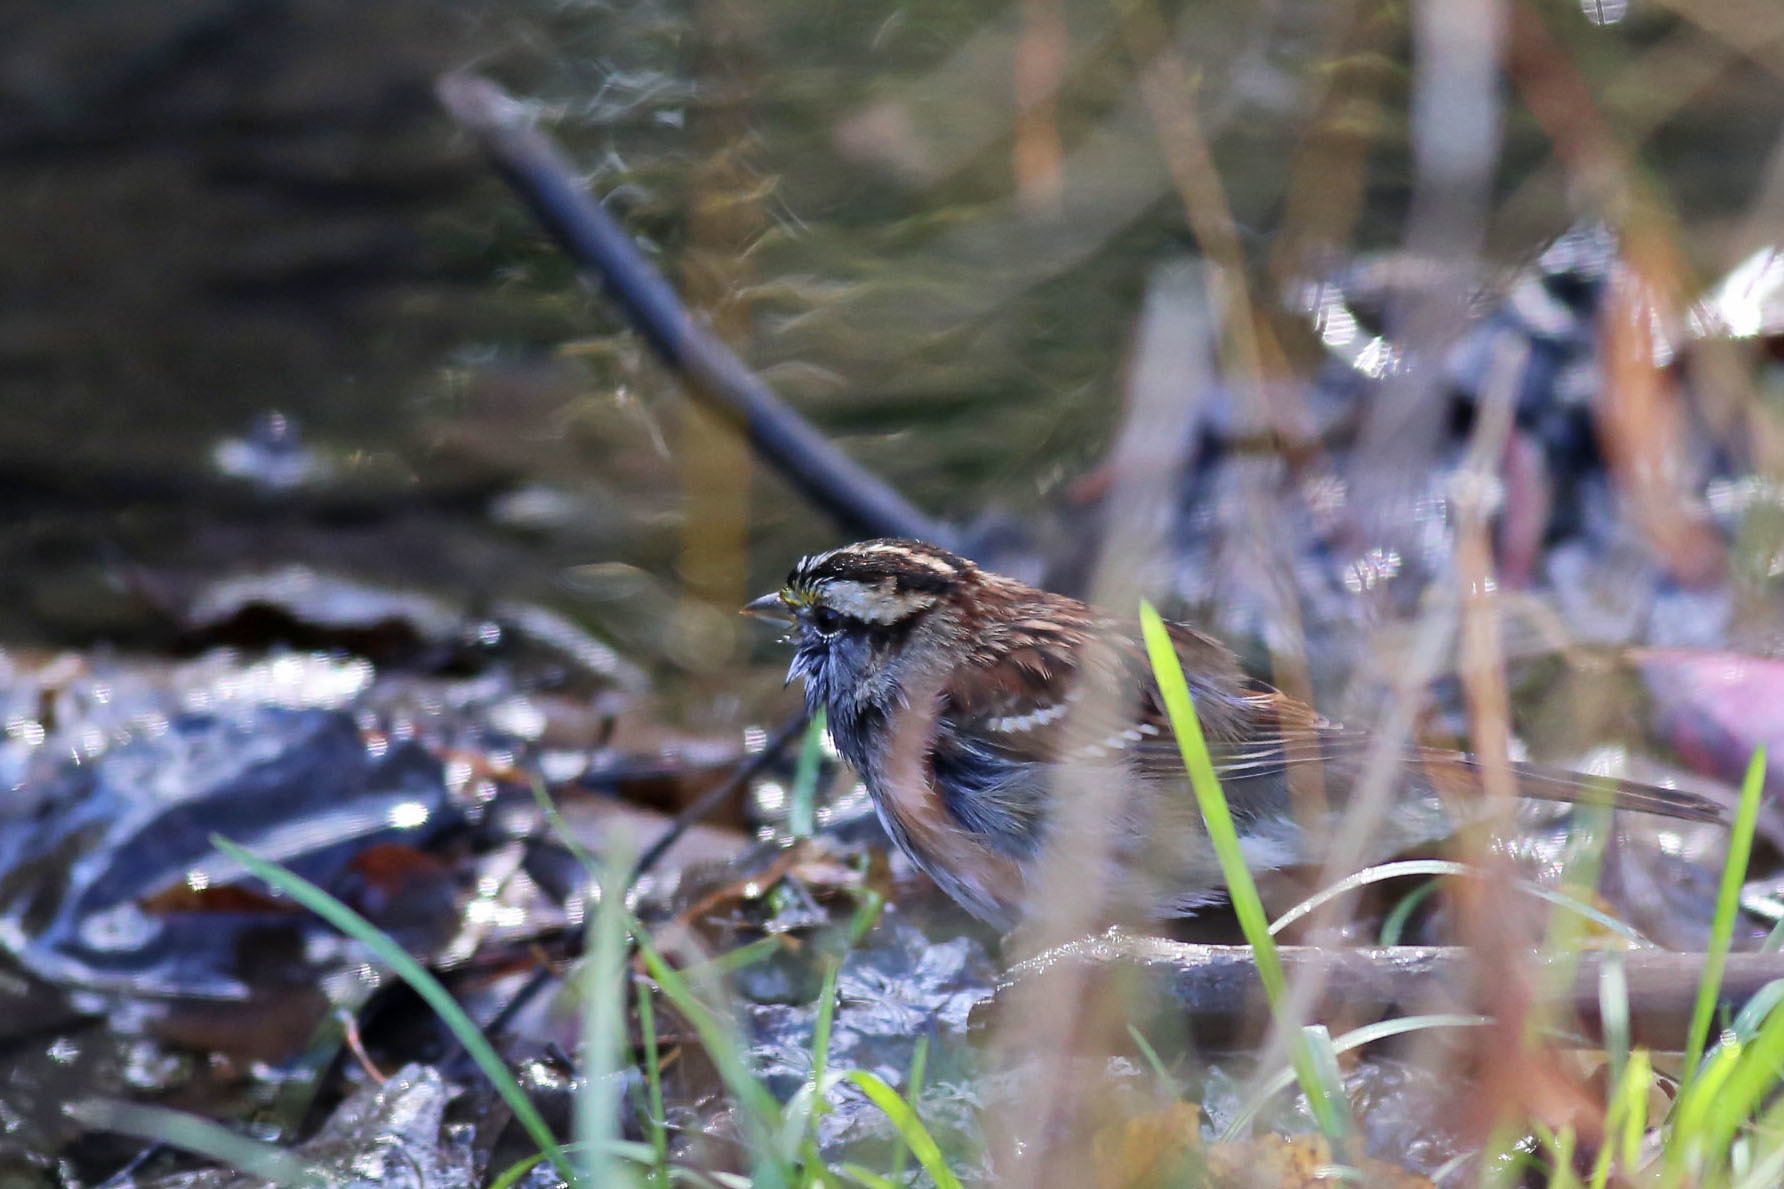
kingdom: Animalia
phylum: Chordata
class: Aves
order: Passeriformes
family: Passerellidae
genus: Zonotrichia
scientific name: Zonotrichia albicollis
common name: White-throated sparrow
